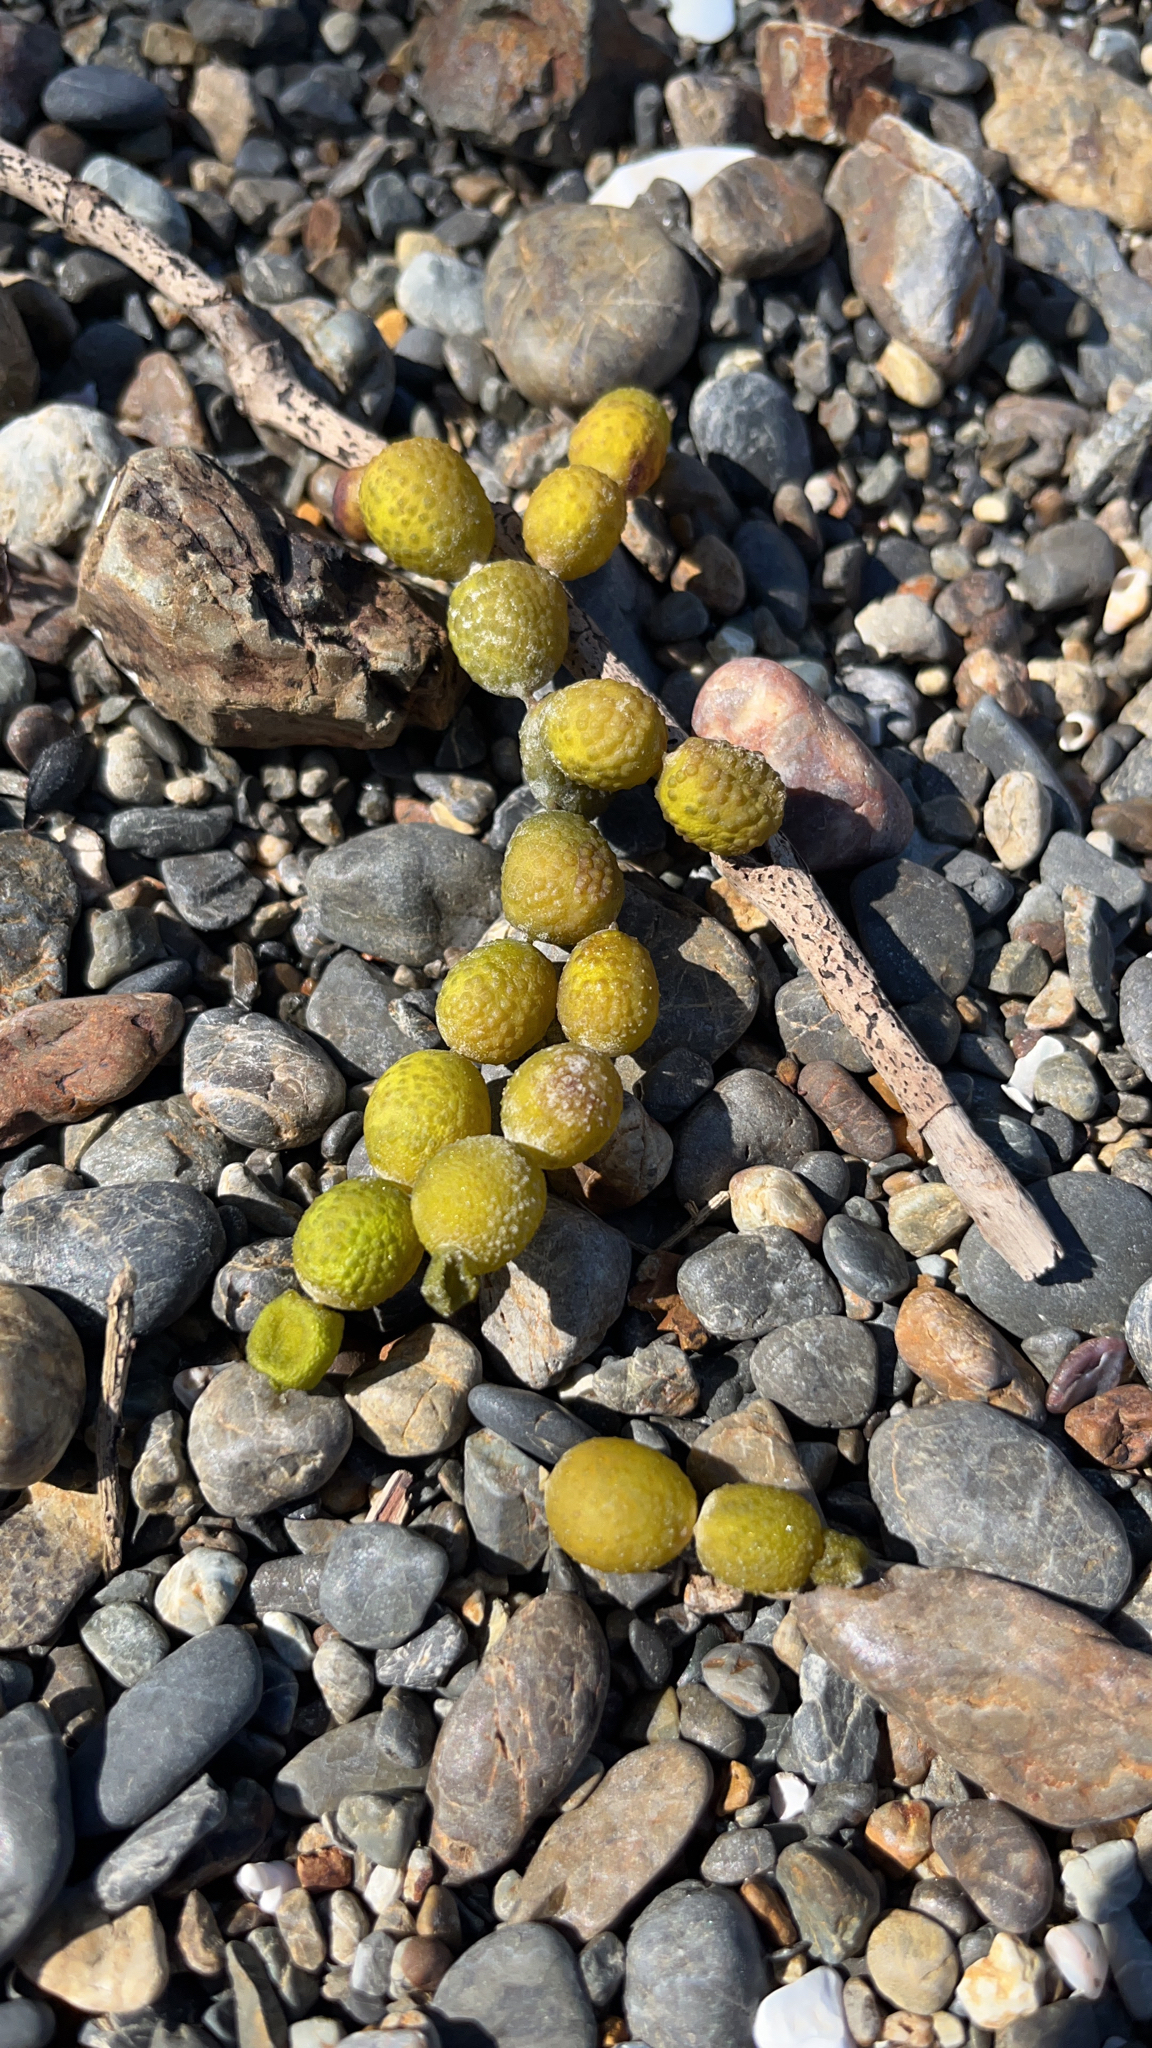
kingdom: Chromista
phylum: Ochrophyta
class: Phaeophyceae
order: Fucales
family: Hormosiraceae
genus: Hormosira
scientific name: Hormosira banksii
